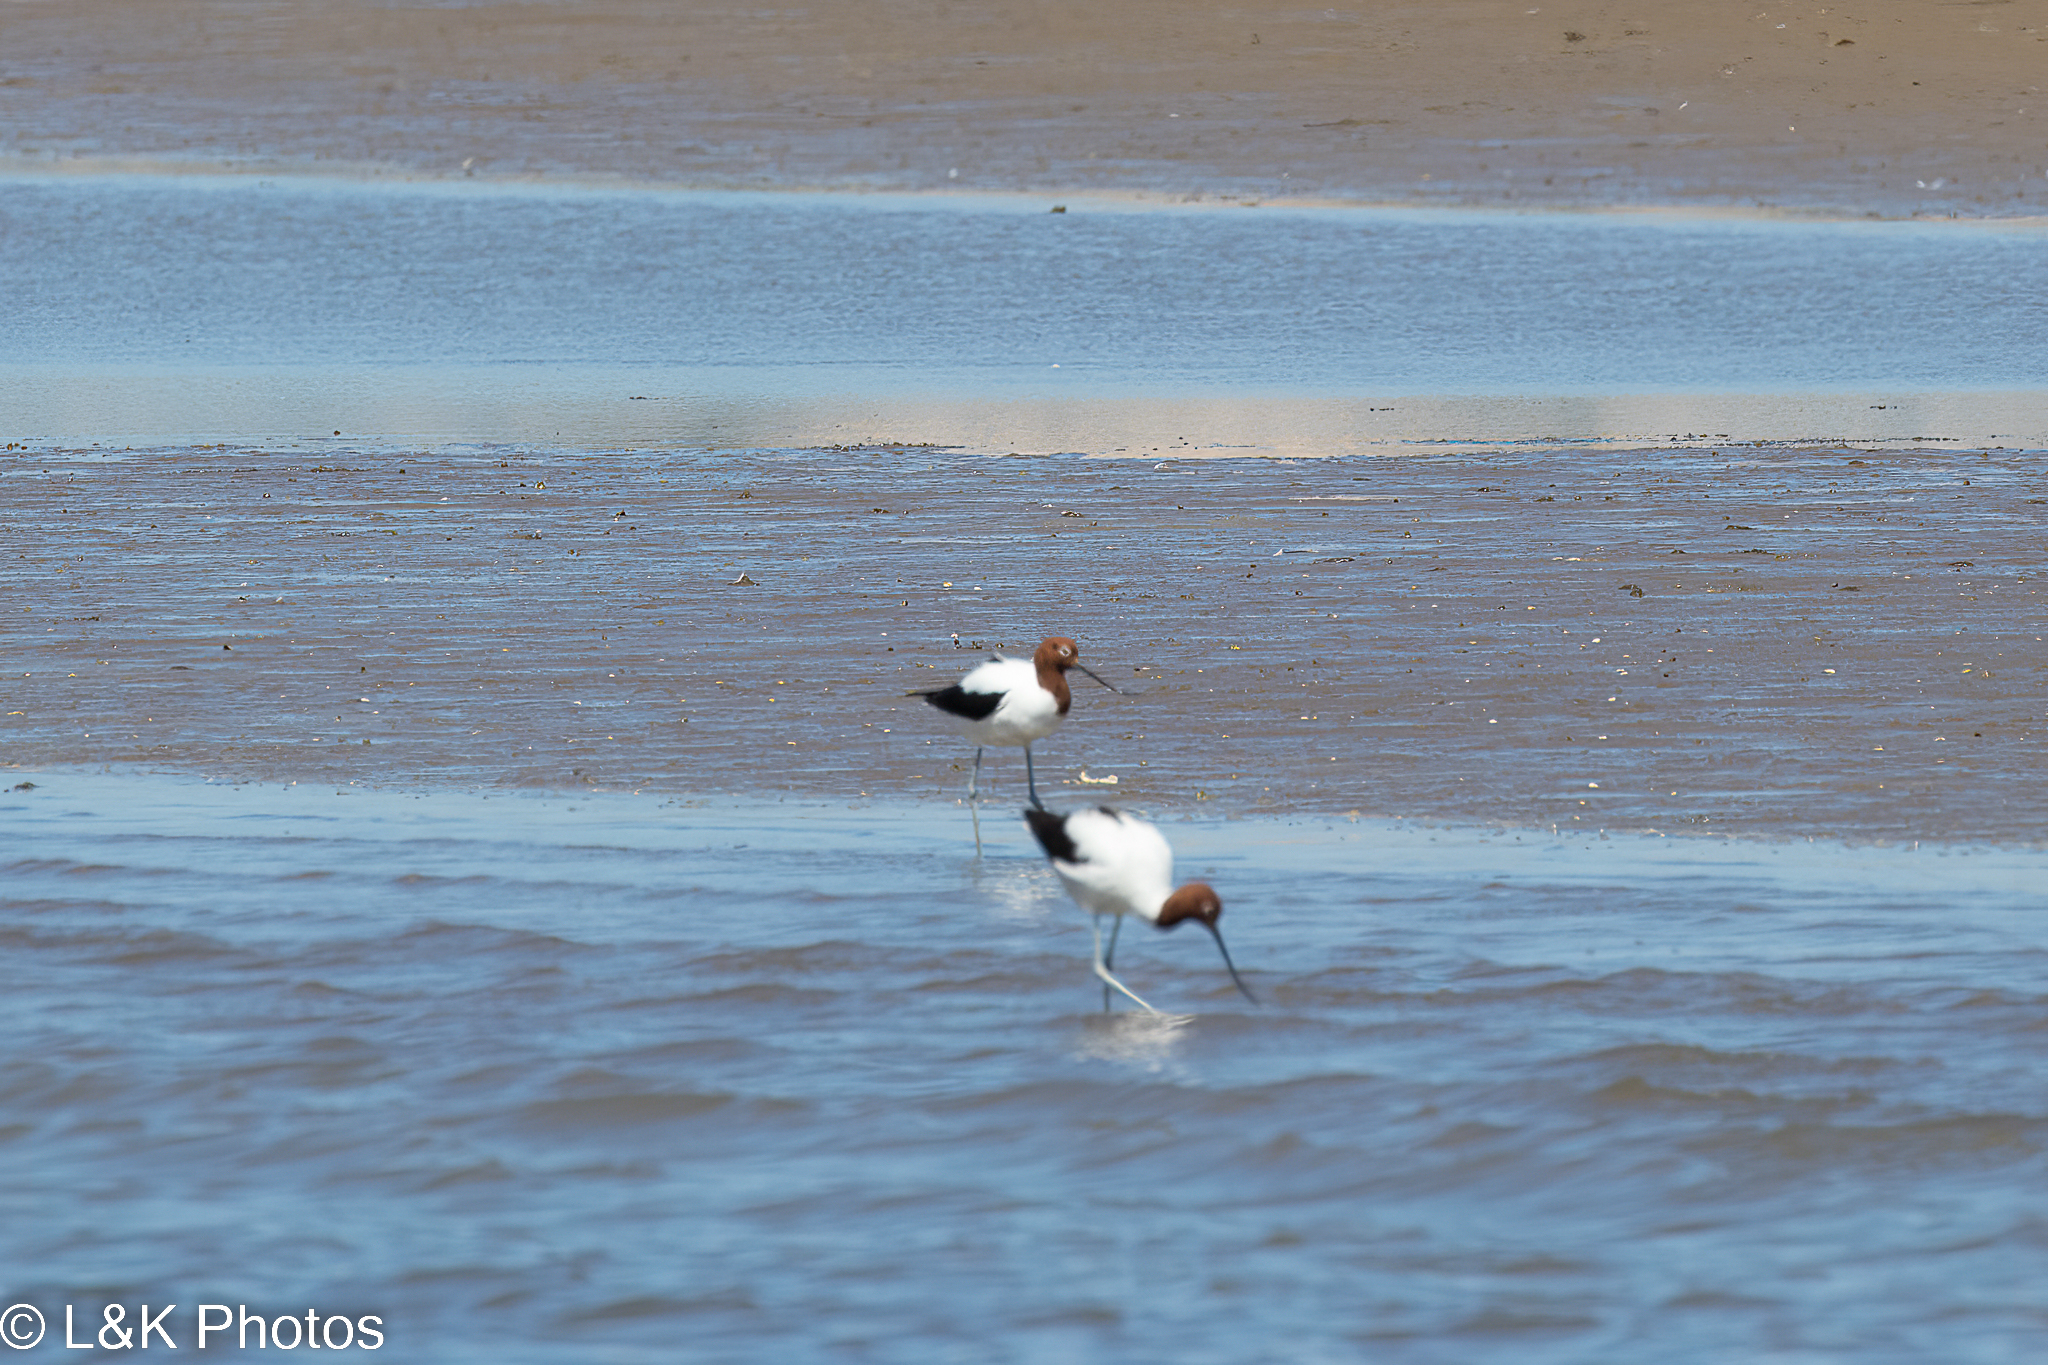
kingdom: Animalia
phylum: Chordata
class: Aves
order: Charadriiformes
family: Recurvirostridae
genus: Recurvirostra
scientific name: Recurvirostra novaehollandiae
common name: Red-necked avocet
